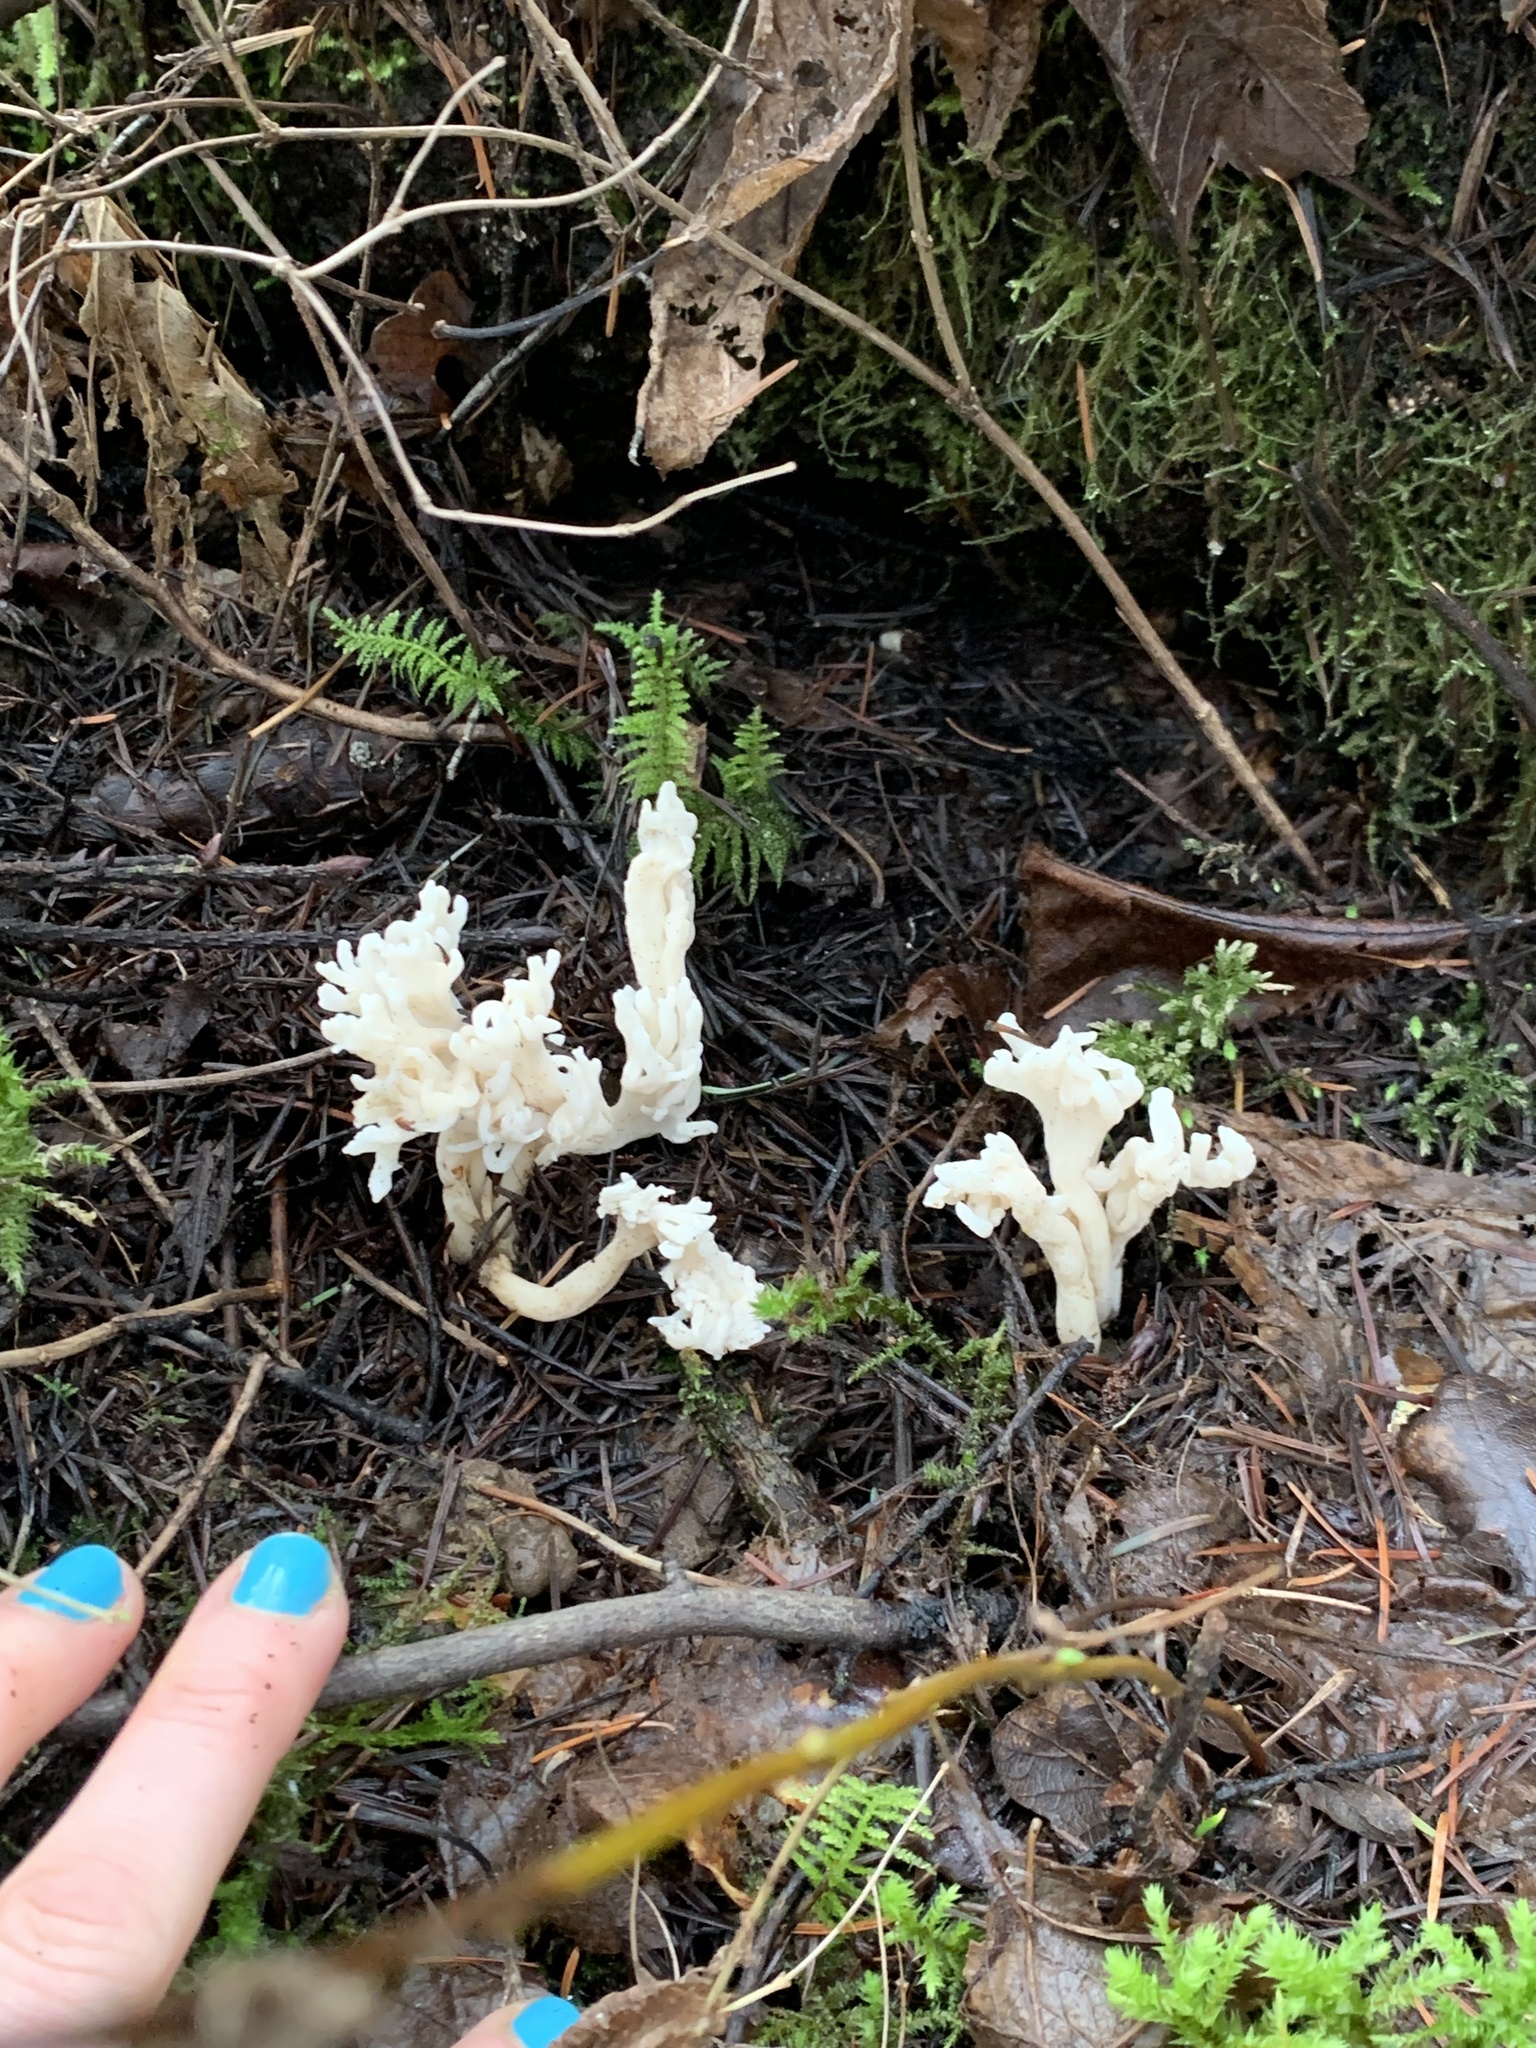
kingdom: Fungi
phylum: Basidiomycota
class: Agaricomycetes
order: Cantharellales
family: Hydnaceae
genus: Clavulina
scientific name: Clavulina rugosa
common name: Wrinkled club
